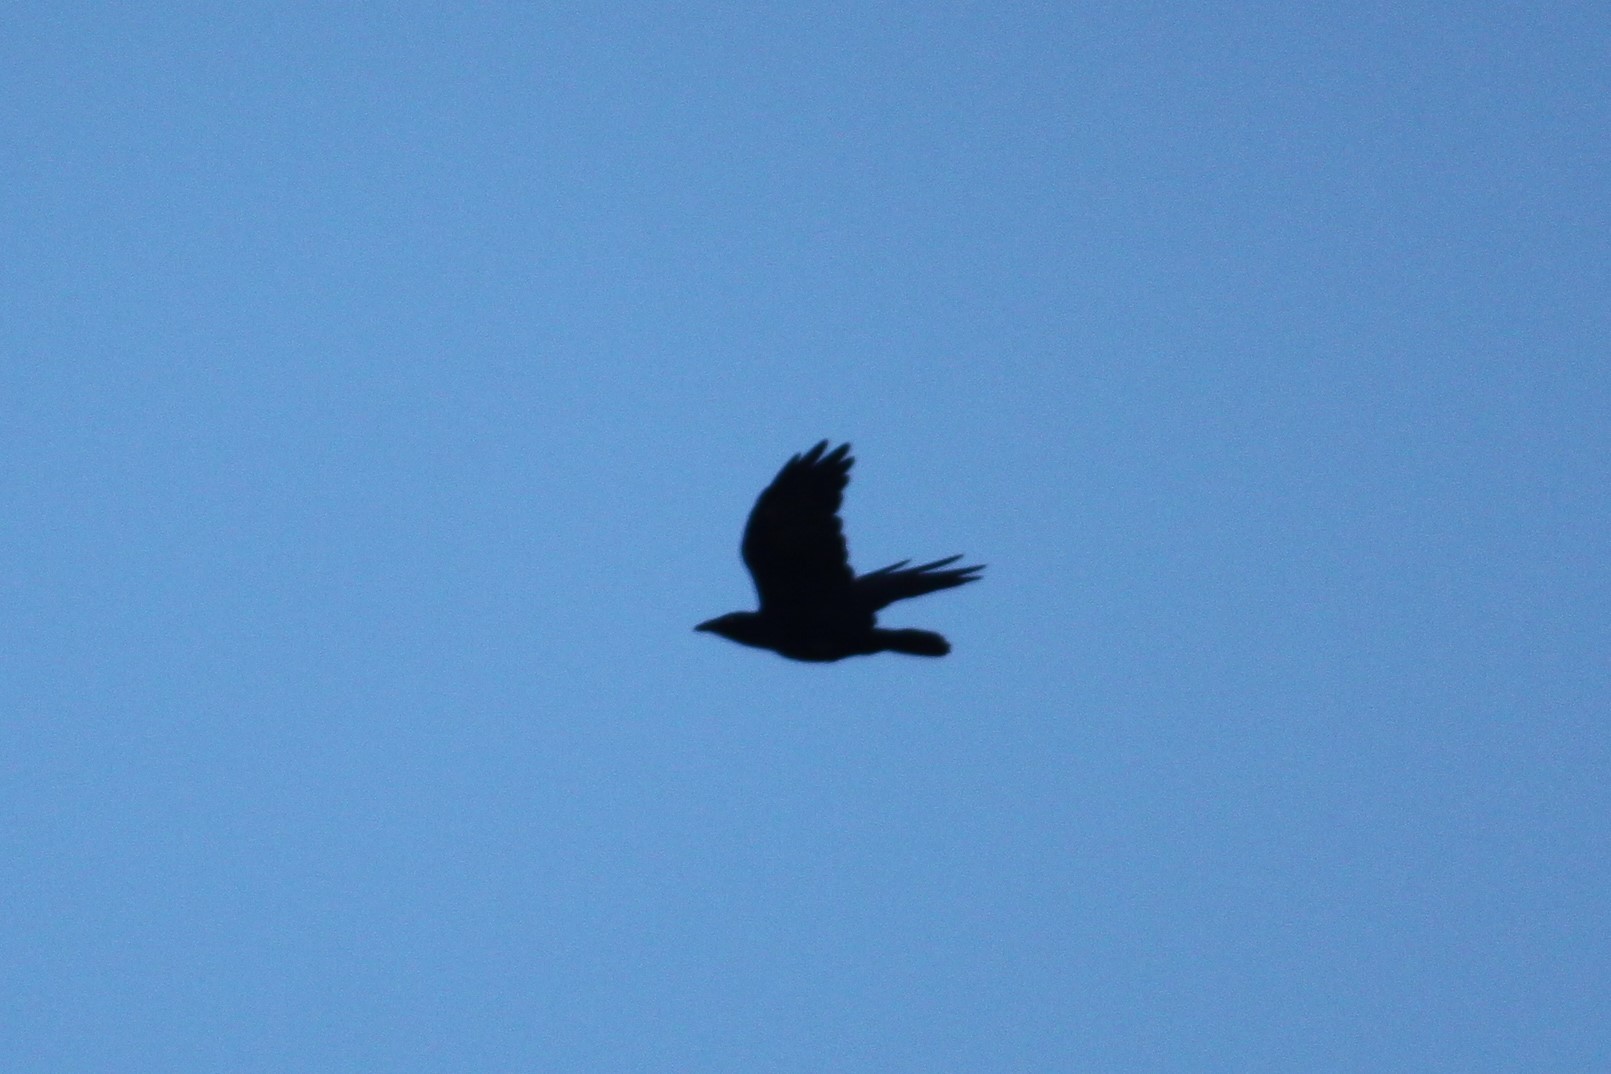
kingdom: Animalia
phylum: Chordata
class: Aves
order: Passeriformes
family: Corvidae
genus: Corvus
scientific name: Corvus ossifragus
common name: Fish crow
